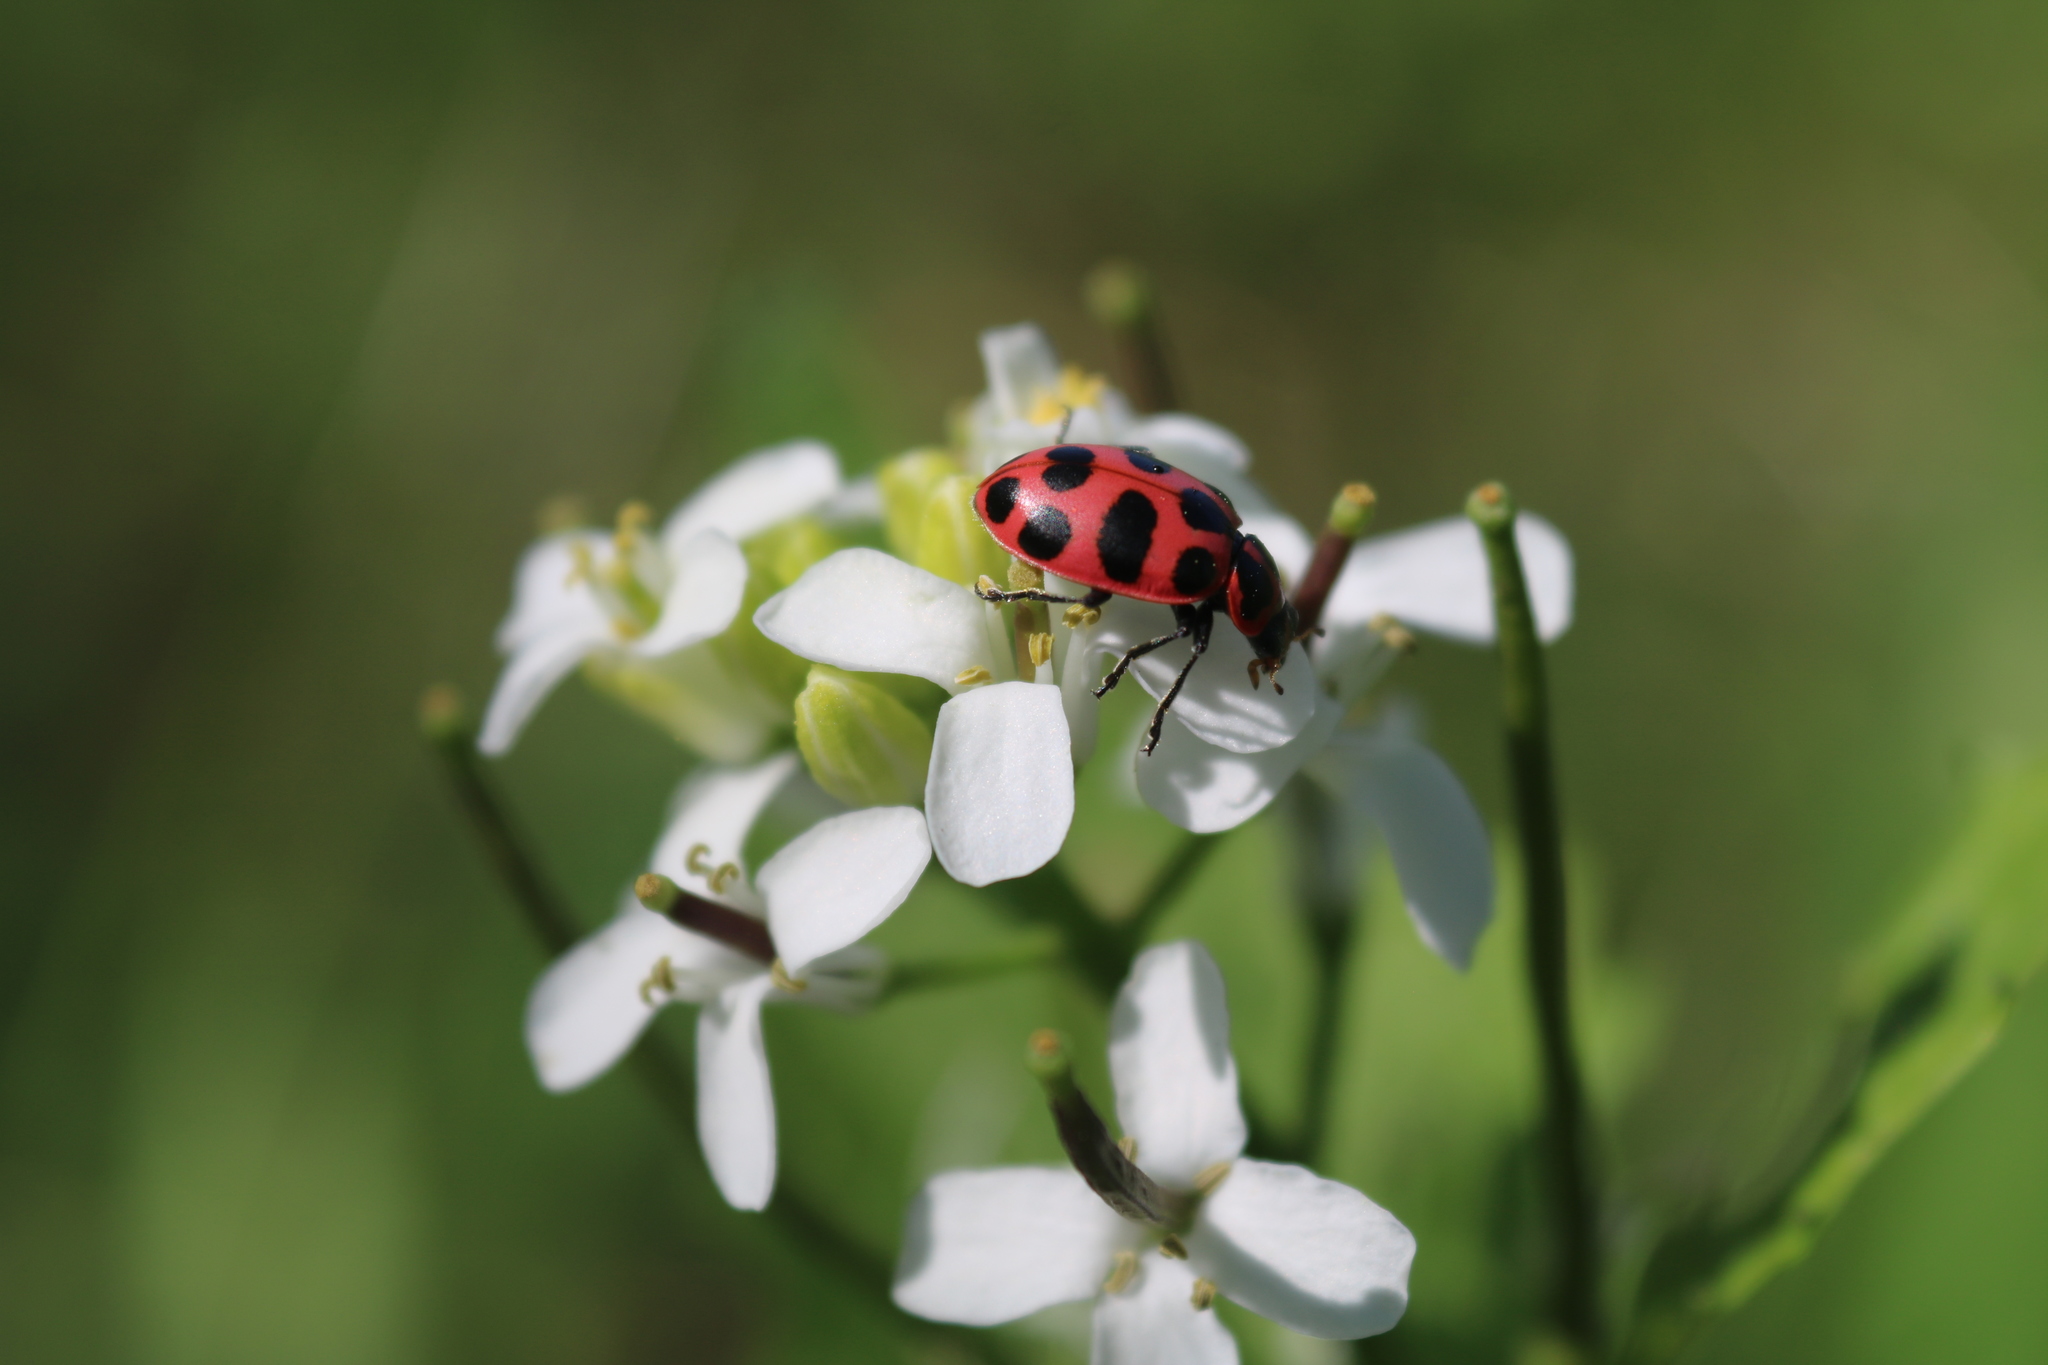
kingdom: Animalia
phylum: Arthropoda
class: Insecta
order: Coleoptera
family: Coccinellidae
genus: Coleomegilla
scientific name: Coleomegilla maculata
